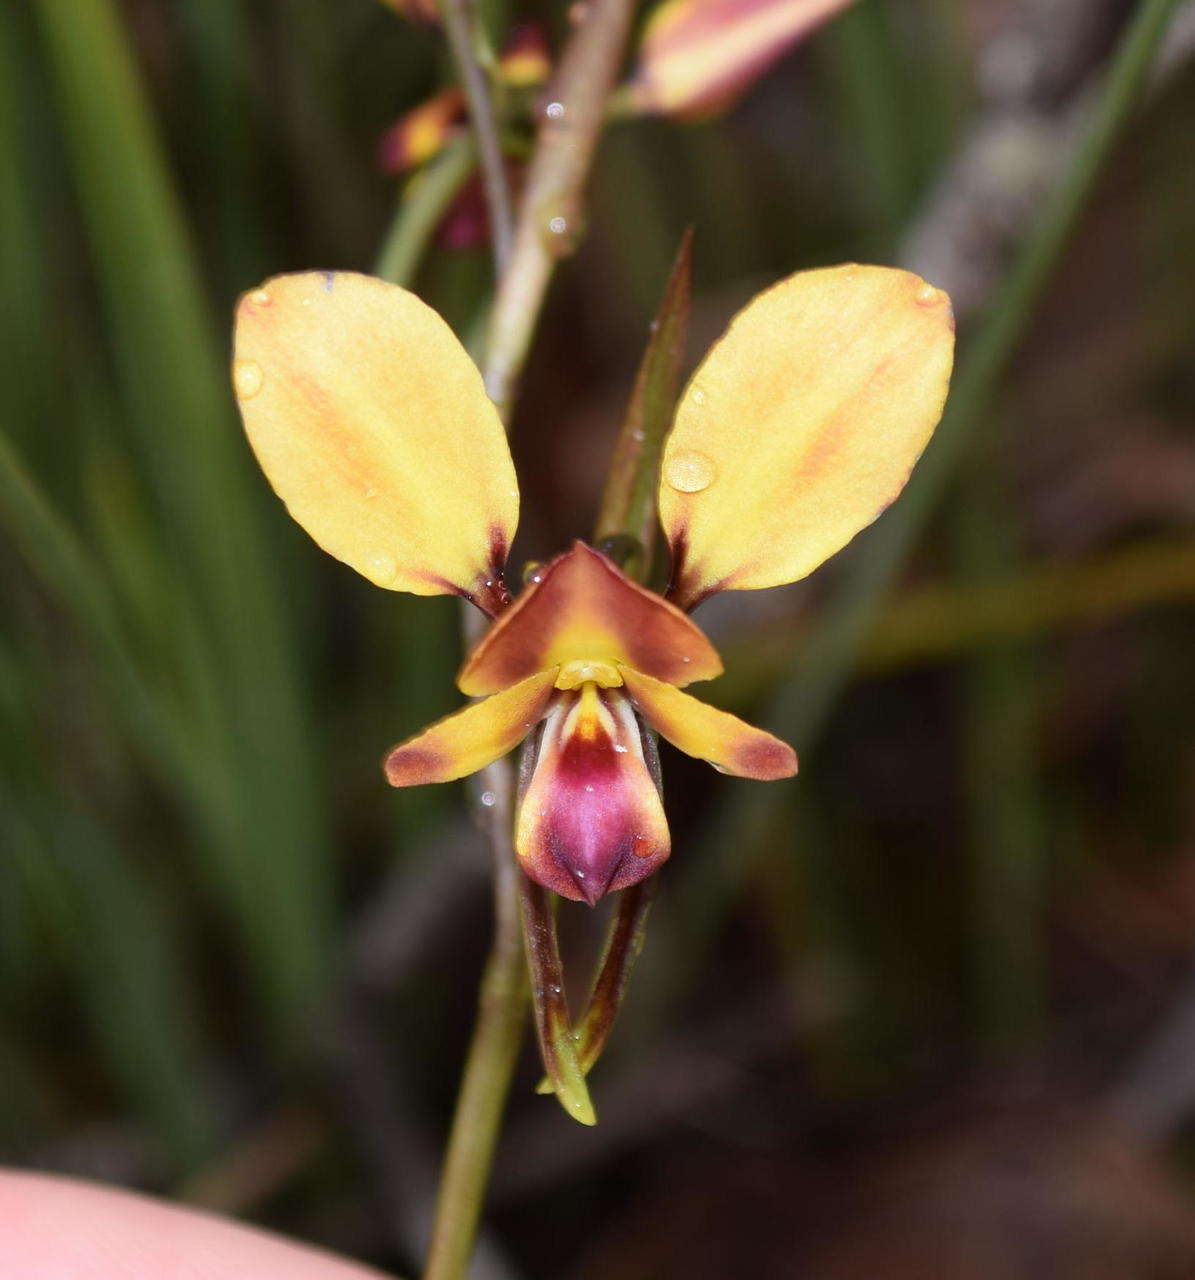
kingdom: Plantae
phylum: Tracheophyta
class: Liliopsida
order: Asparagales
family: Orchidaceae
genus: Diuris
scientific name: Diuris orientis
